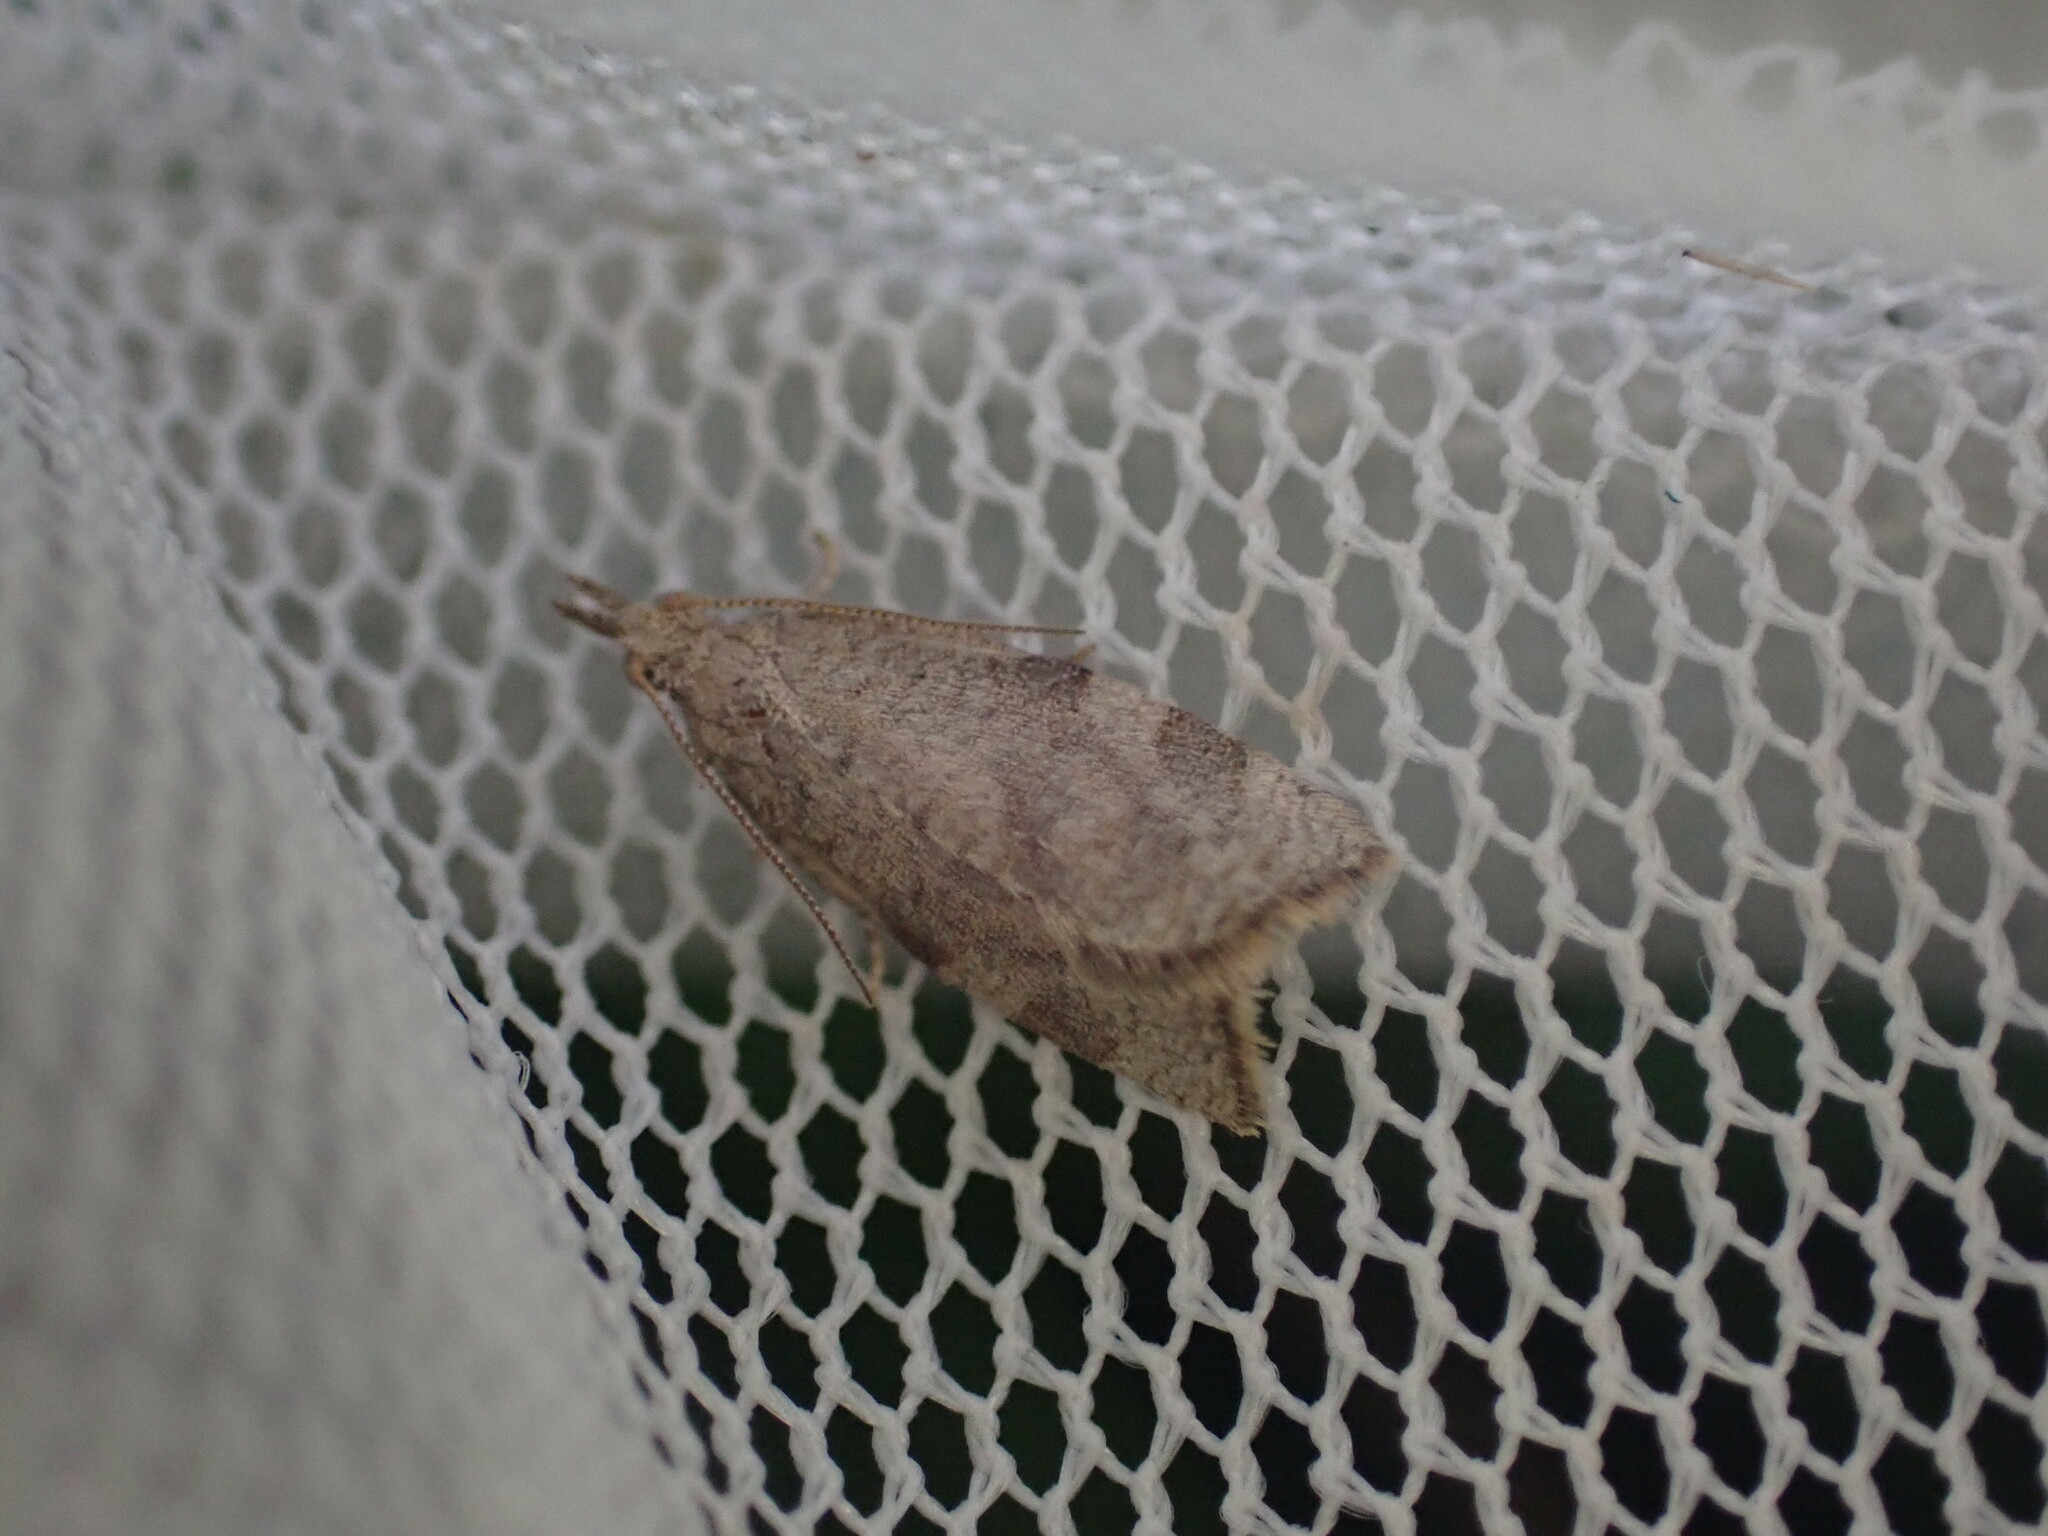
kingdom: Animalia
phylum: Arthropoda
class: Insecta
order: Lepidoptera
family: Tortricidae
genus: Catamacta
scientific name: Catamacta gavisana
